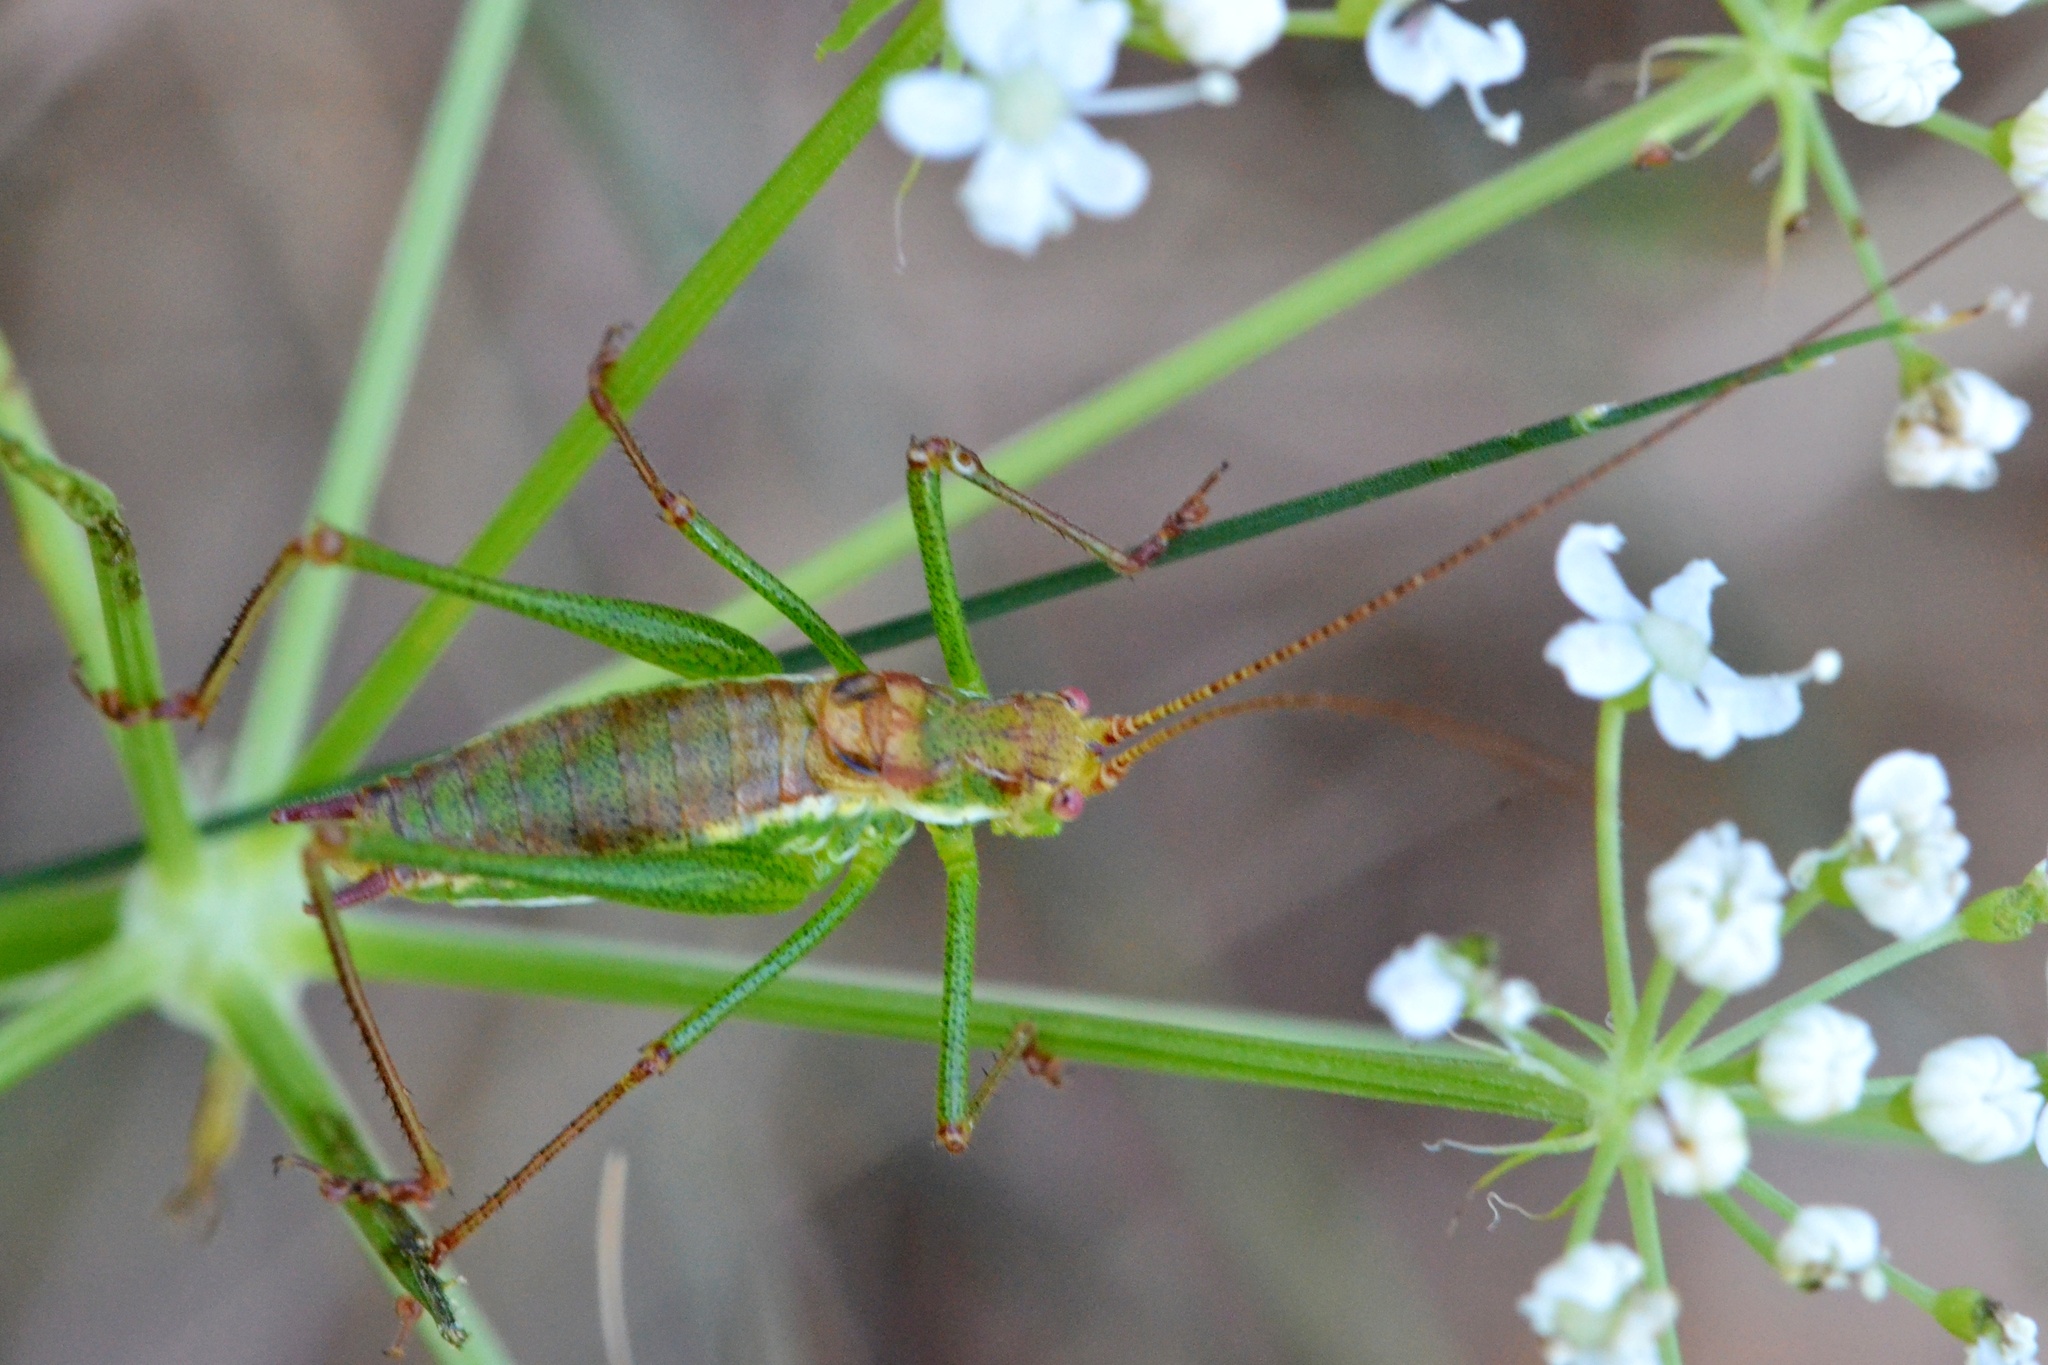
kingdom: Animalia
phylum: Arthropoda
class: Insecta
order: Orthoptera
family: Tettigoniidae
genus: Leptophyes
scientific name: Leptophyes albovittata
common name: Striped bush-cricket
